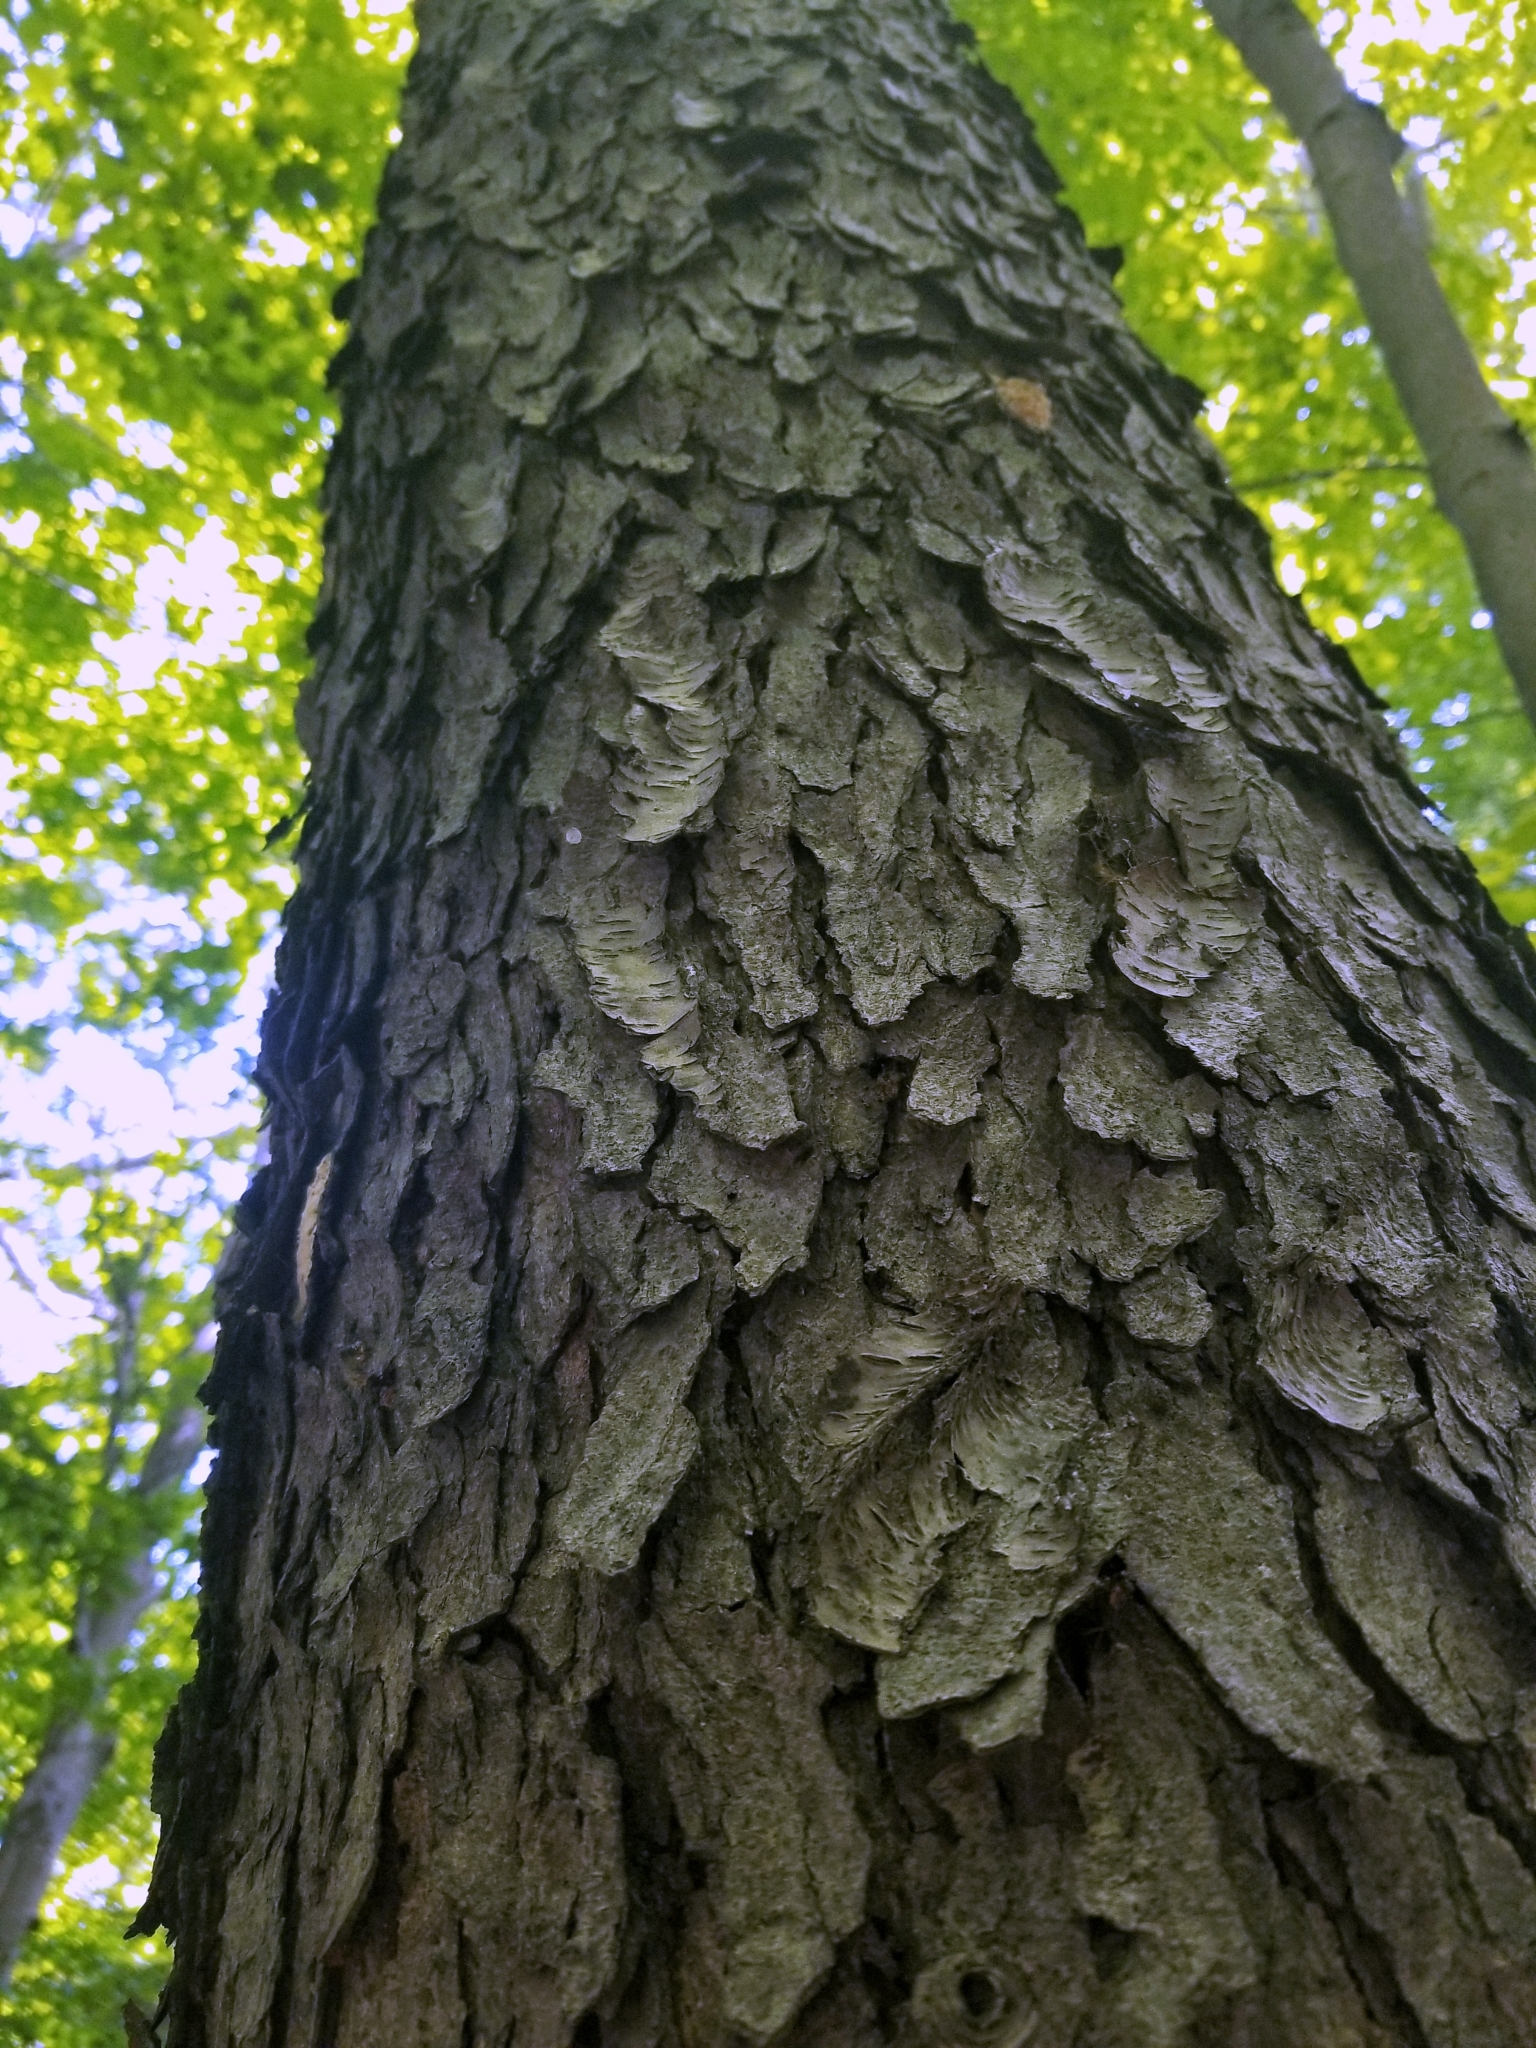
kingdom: Plantae
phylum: Tracheophyta
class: Magnoliopsida
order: Rosales
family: Rosaceae
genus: Prunus
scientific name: Prunus serotina
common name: Black cherry
